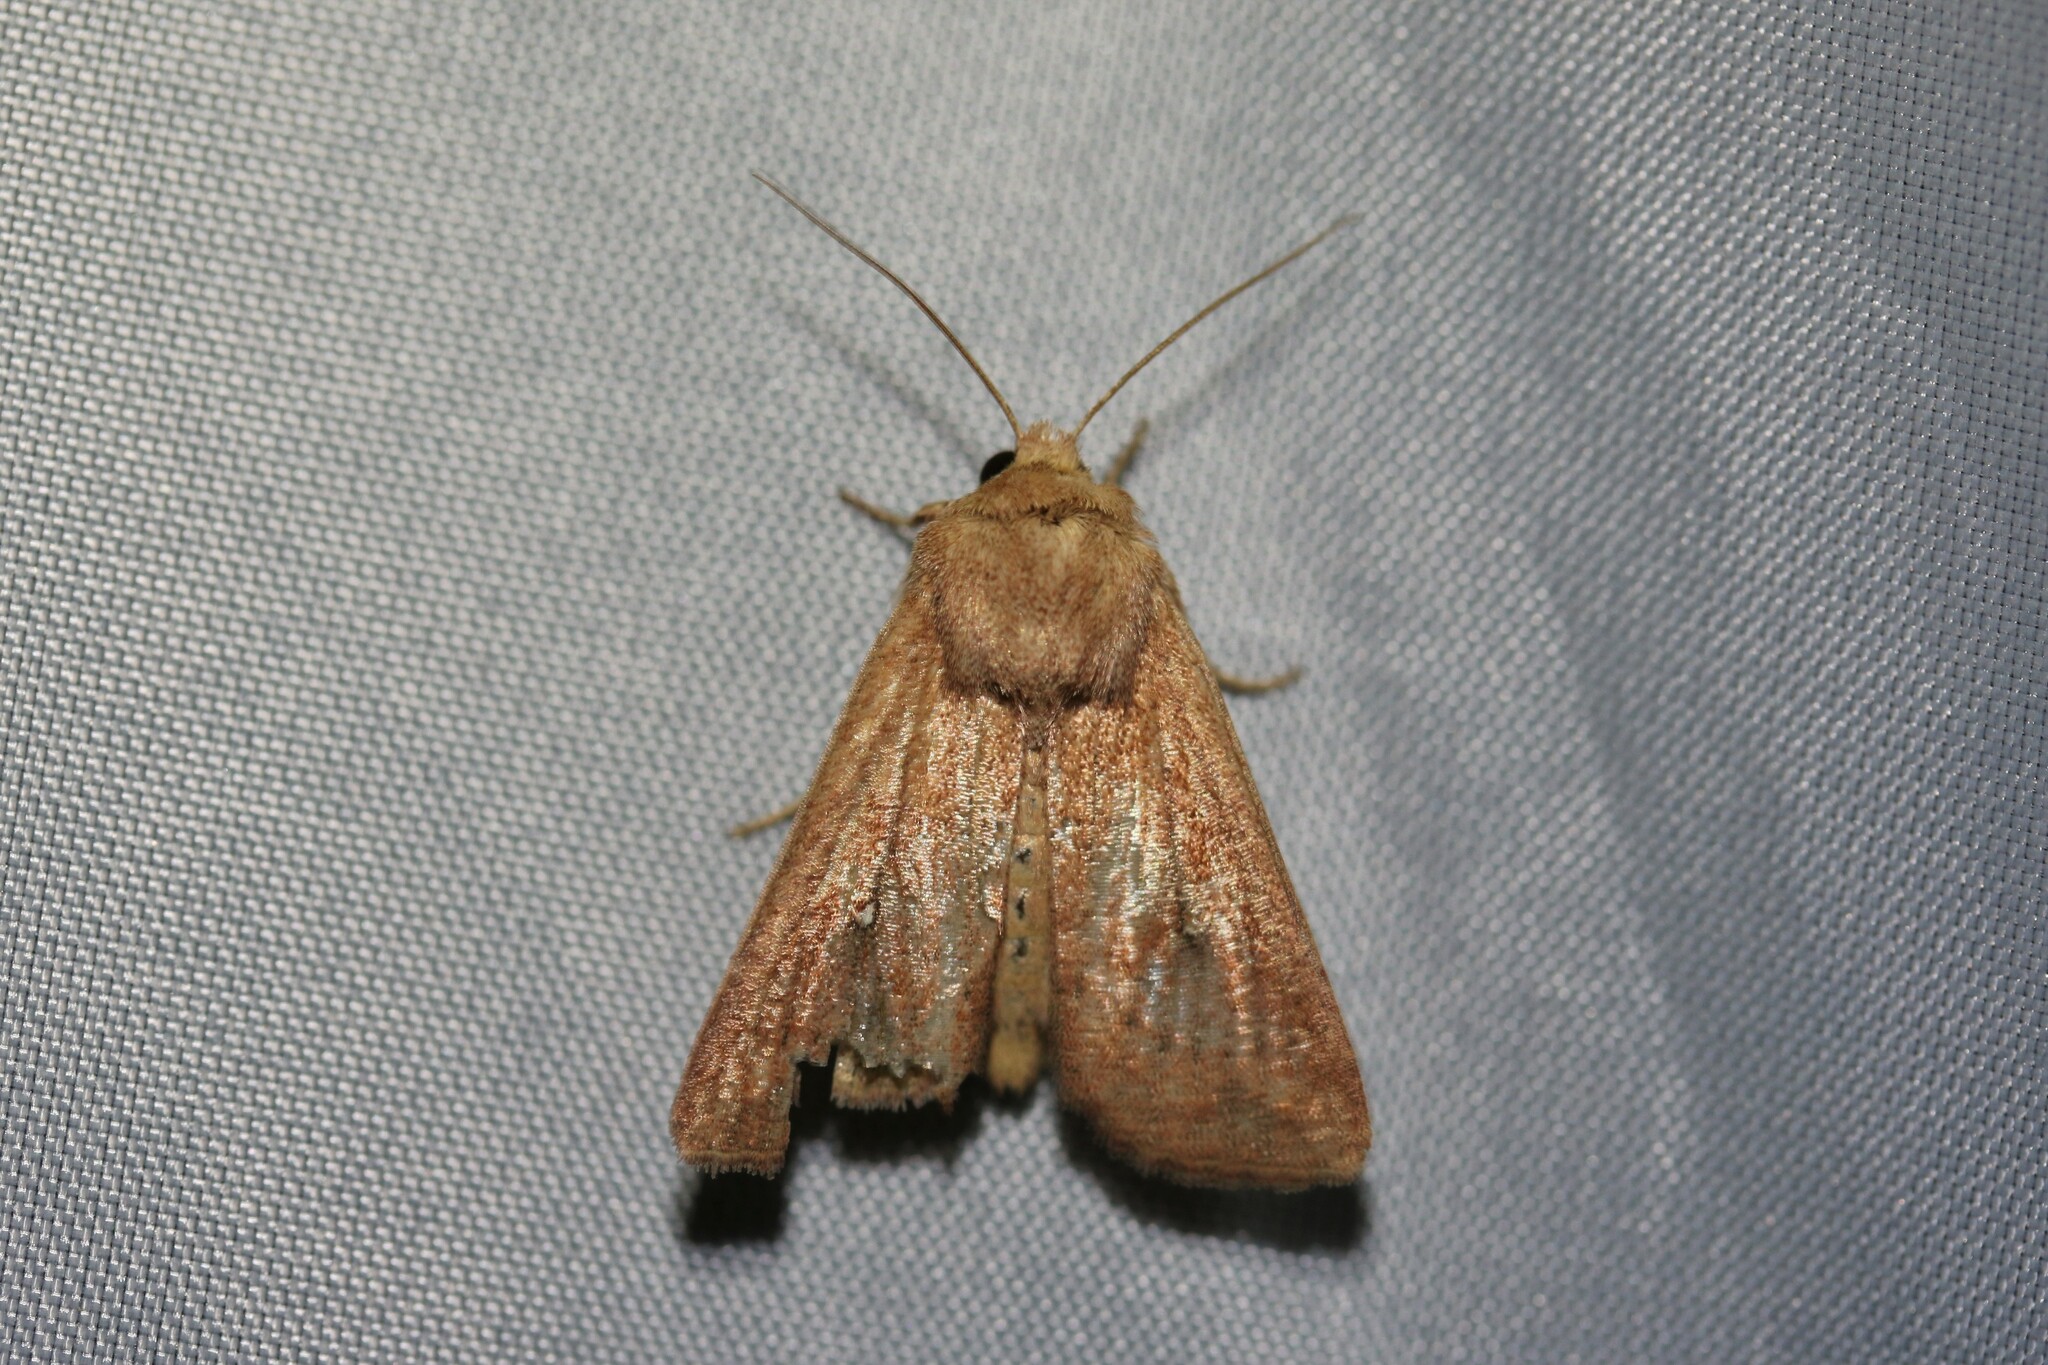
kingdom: Animalia
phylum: Arthropoda
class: Insecta
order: Lepidoptera
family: Noctuidae
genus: Mythimna
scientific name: Mythimna albipuncta
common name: White-point
